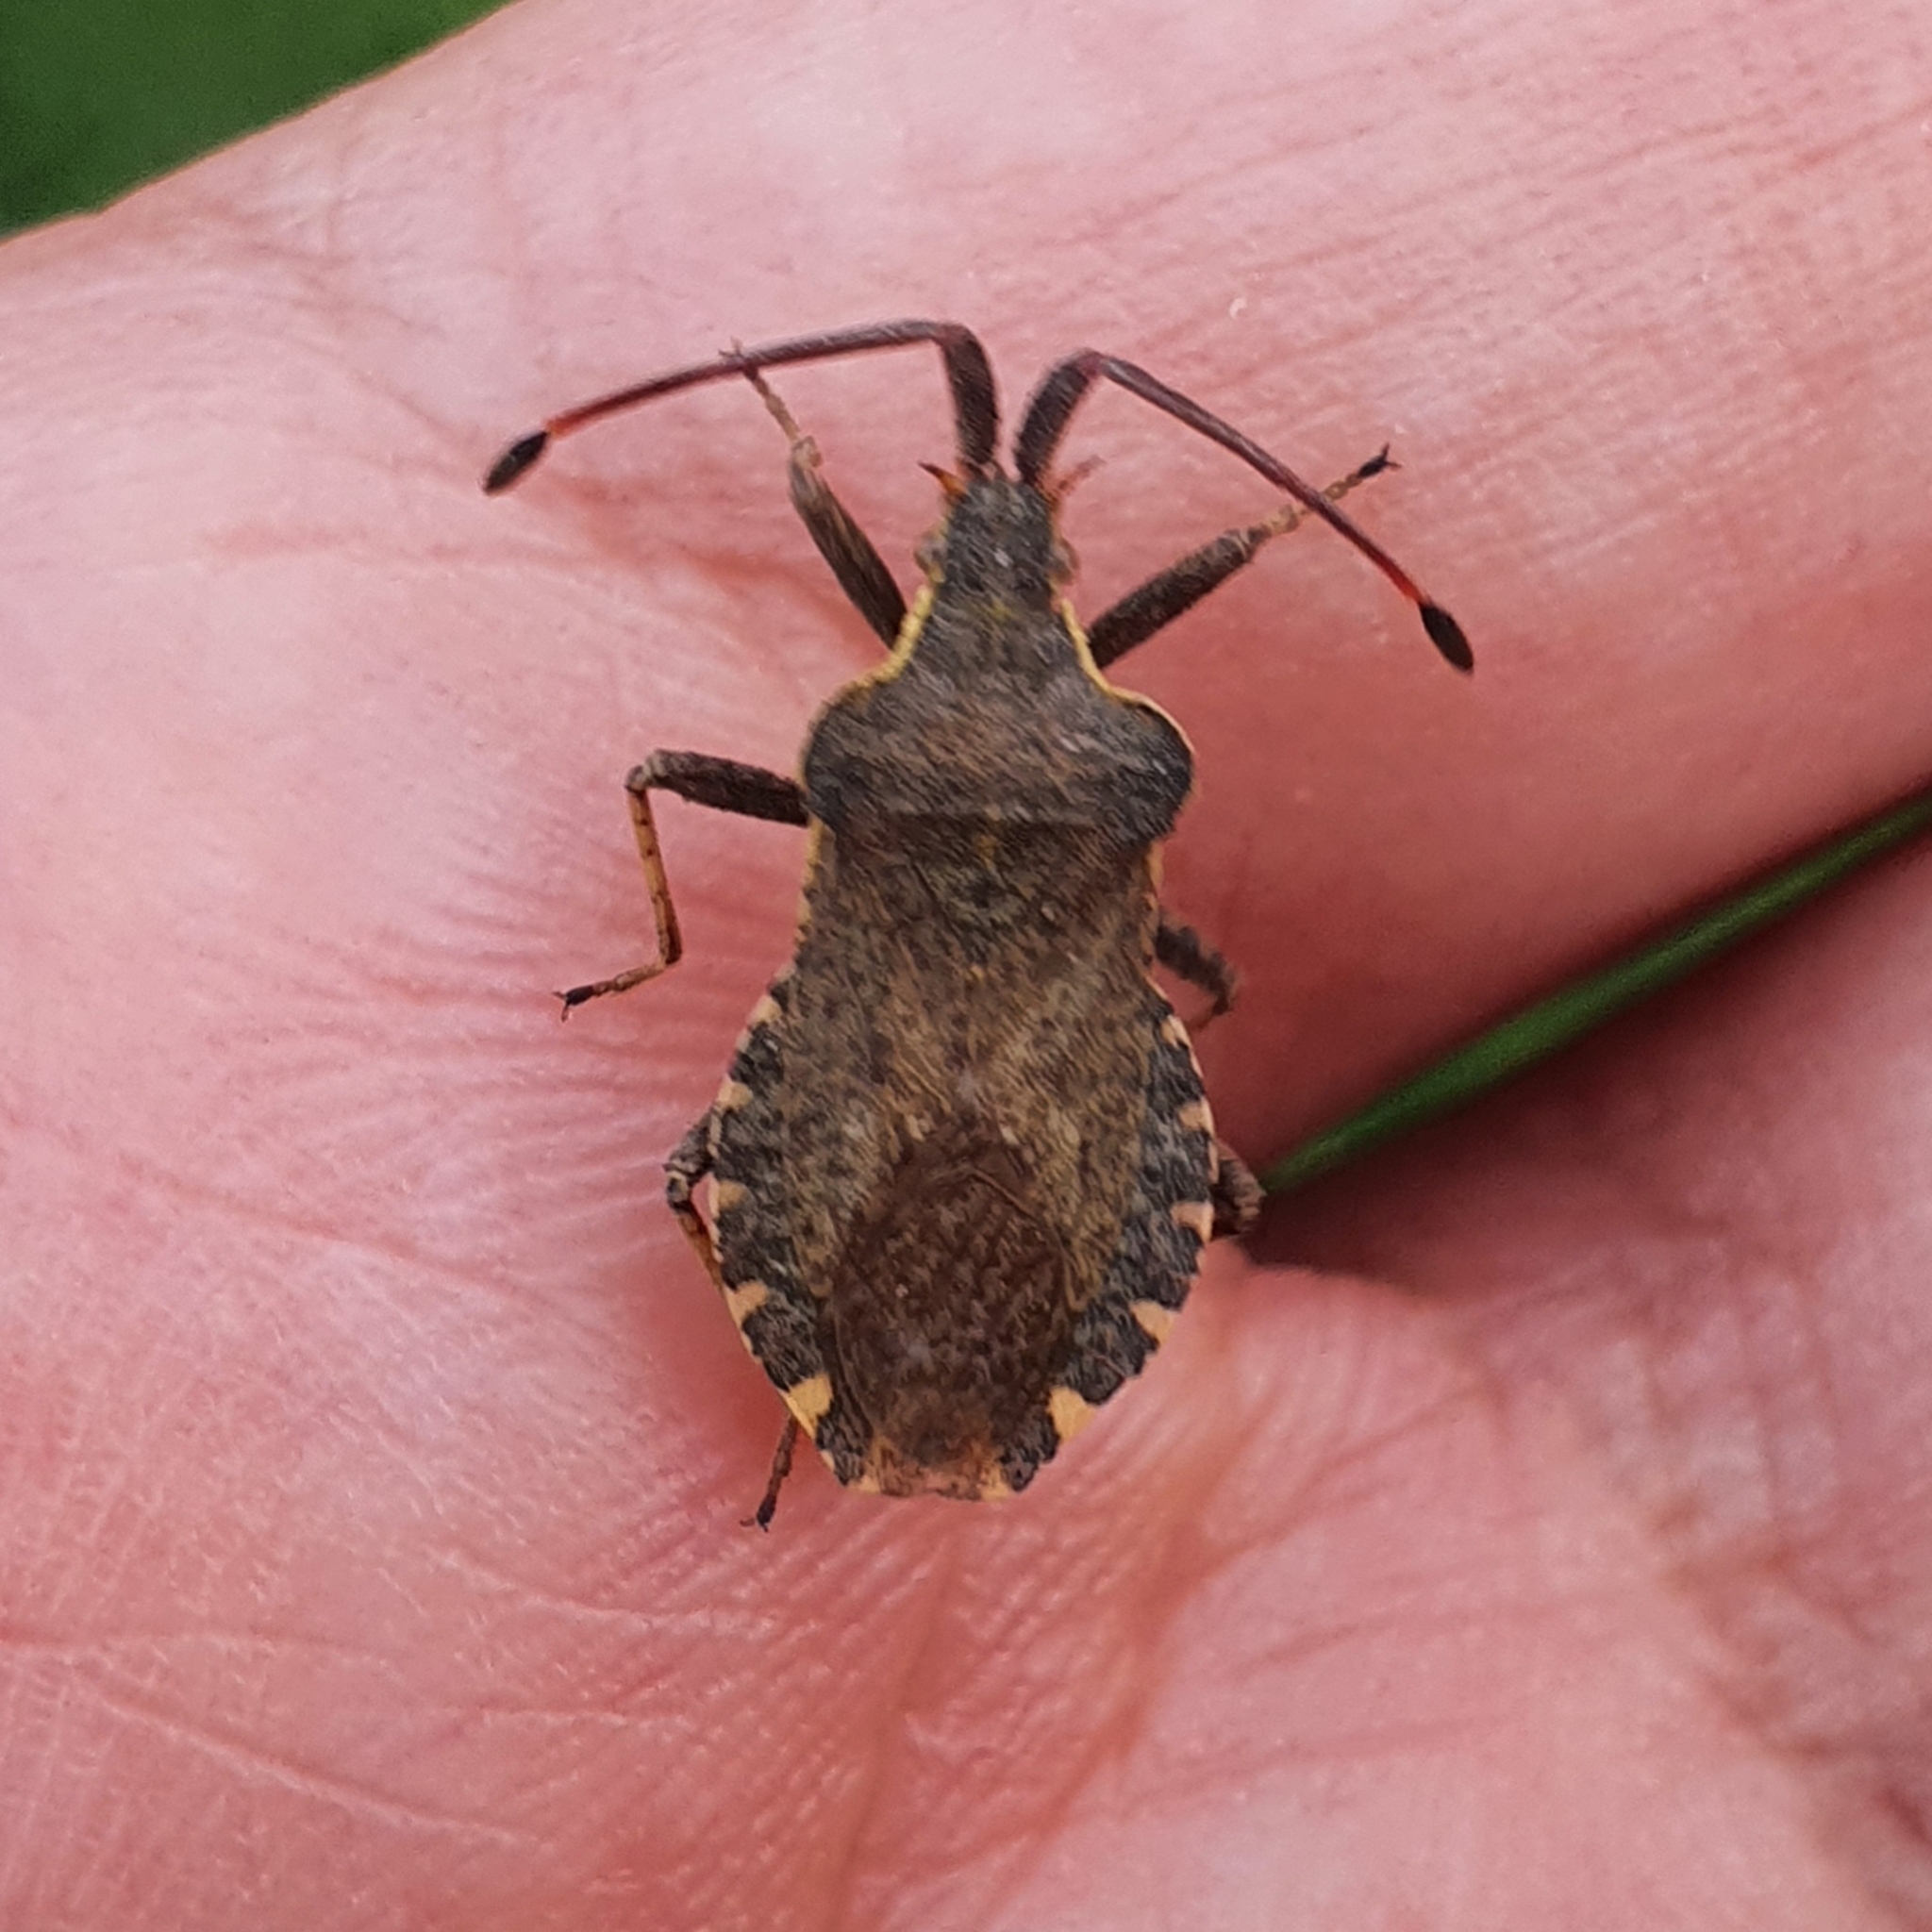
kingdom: Animalia
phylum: Arthropoda
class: Insecta
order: Hemiptera
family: Coreidae
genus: Enoplops
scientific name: Enoplops bos
